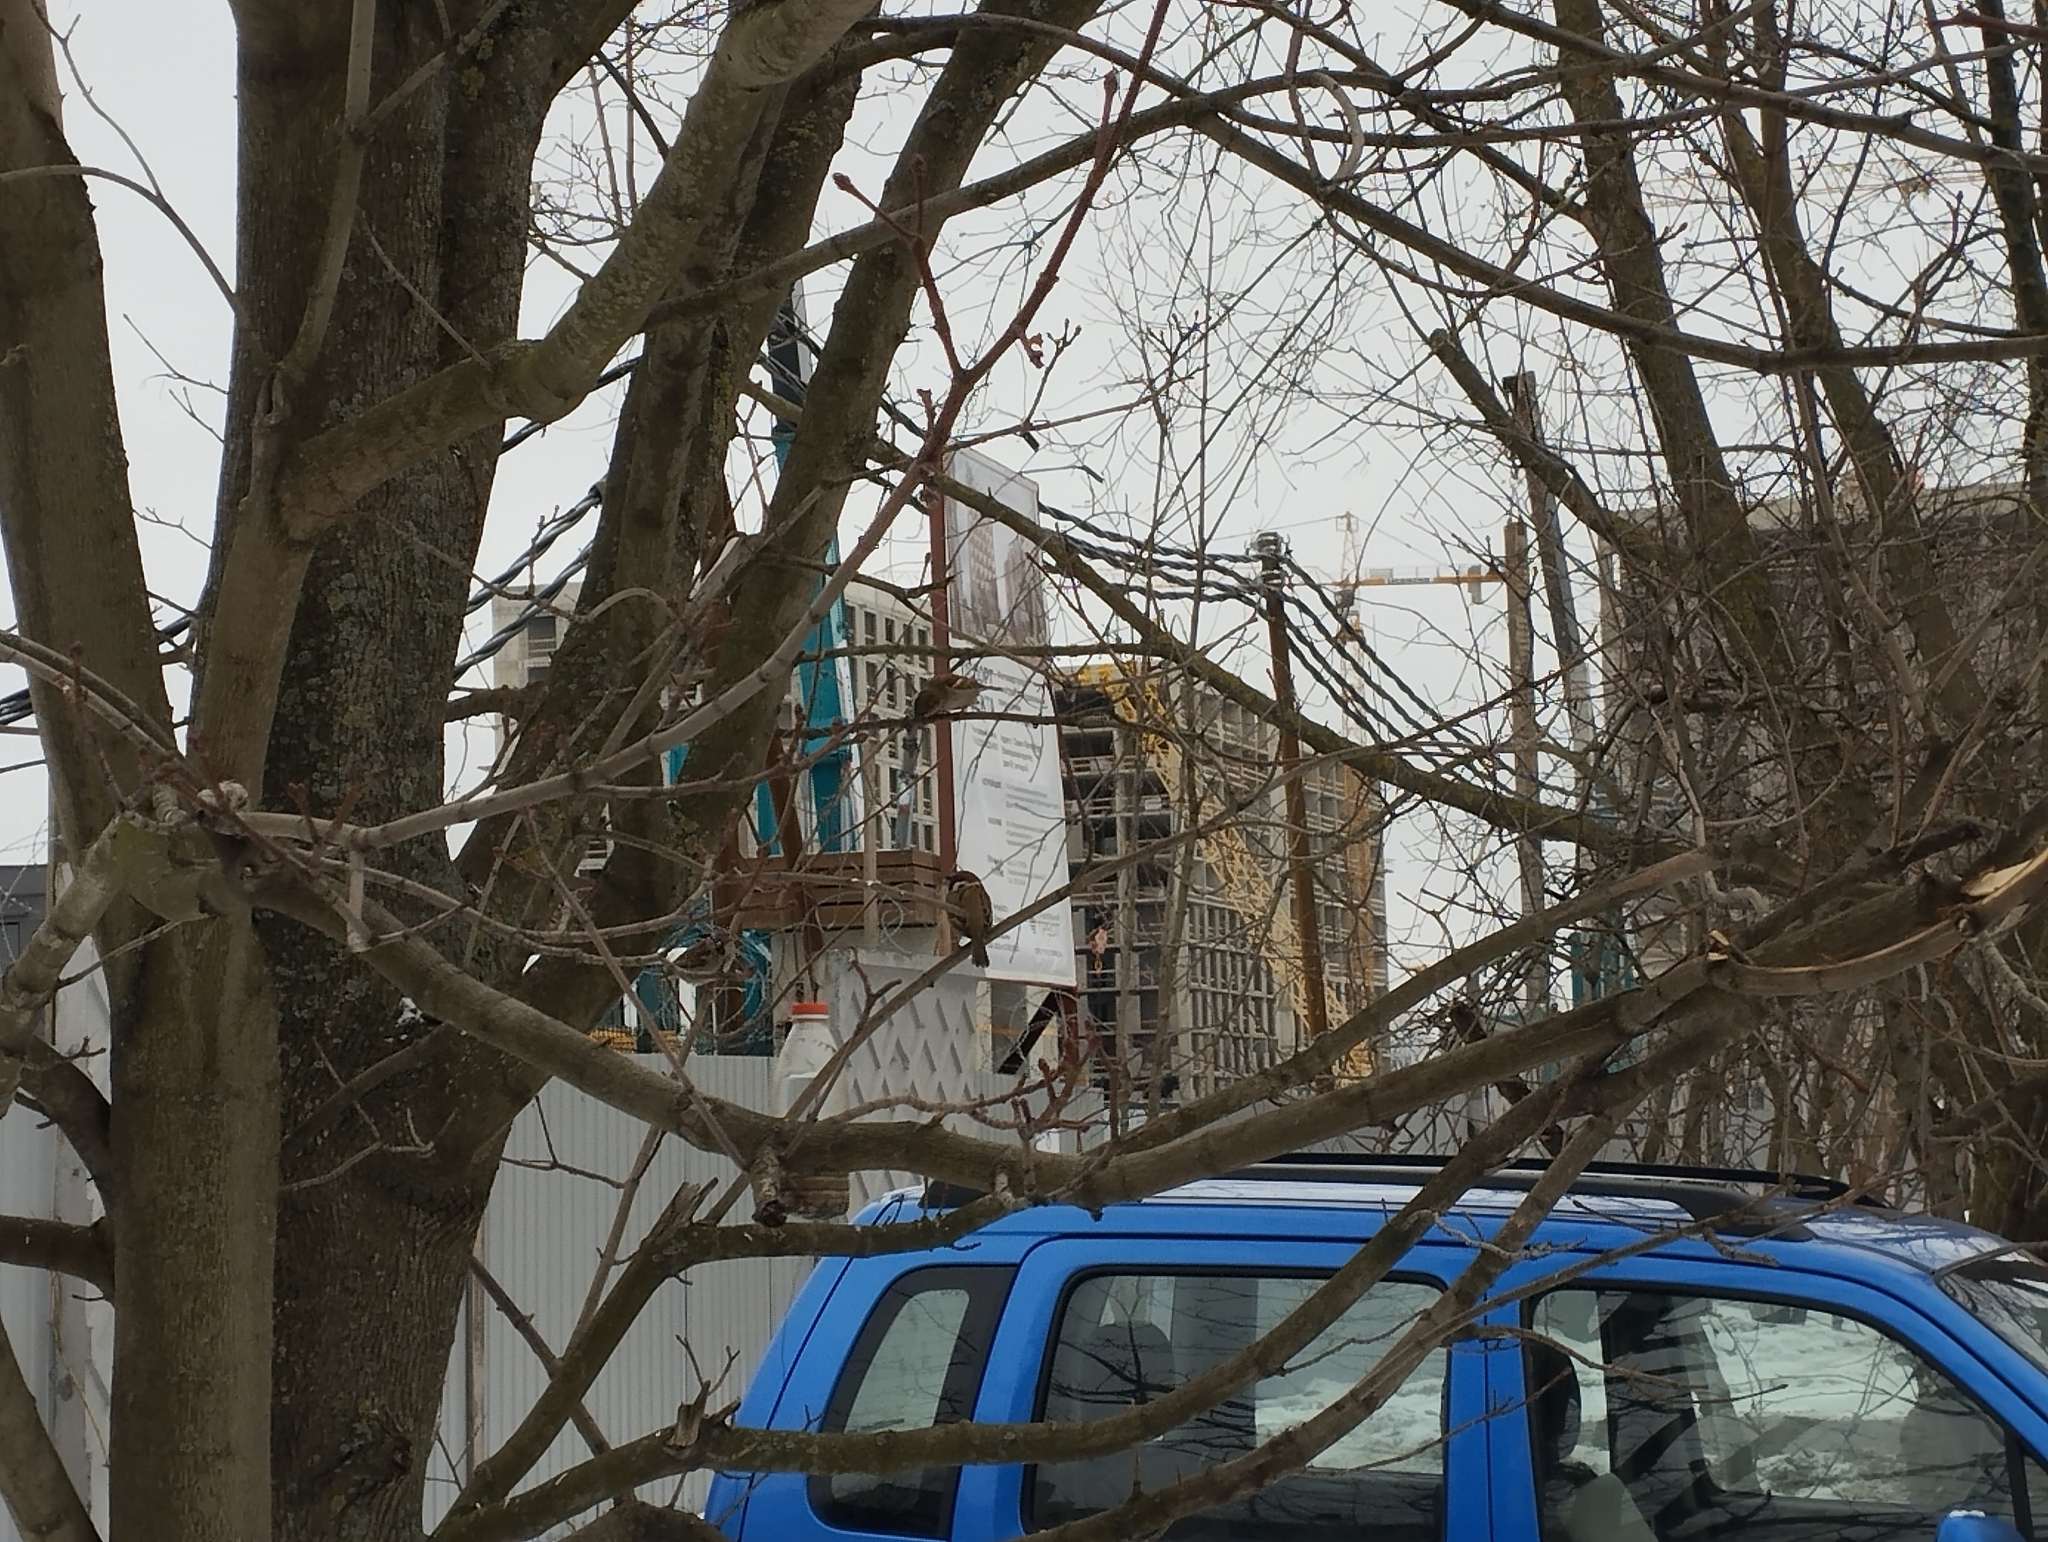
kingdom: Animalia
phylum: Chordata
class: Aves
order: Passeriformes
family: Passeridae
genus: Passer
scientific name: Passer montanus
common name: Eurasian tree sparrow
